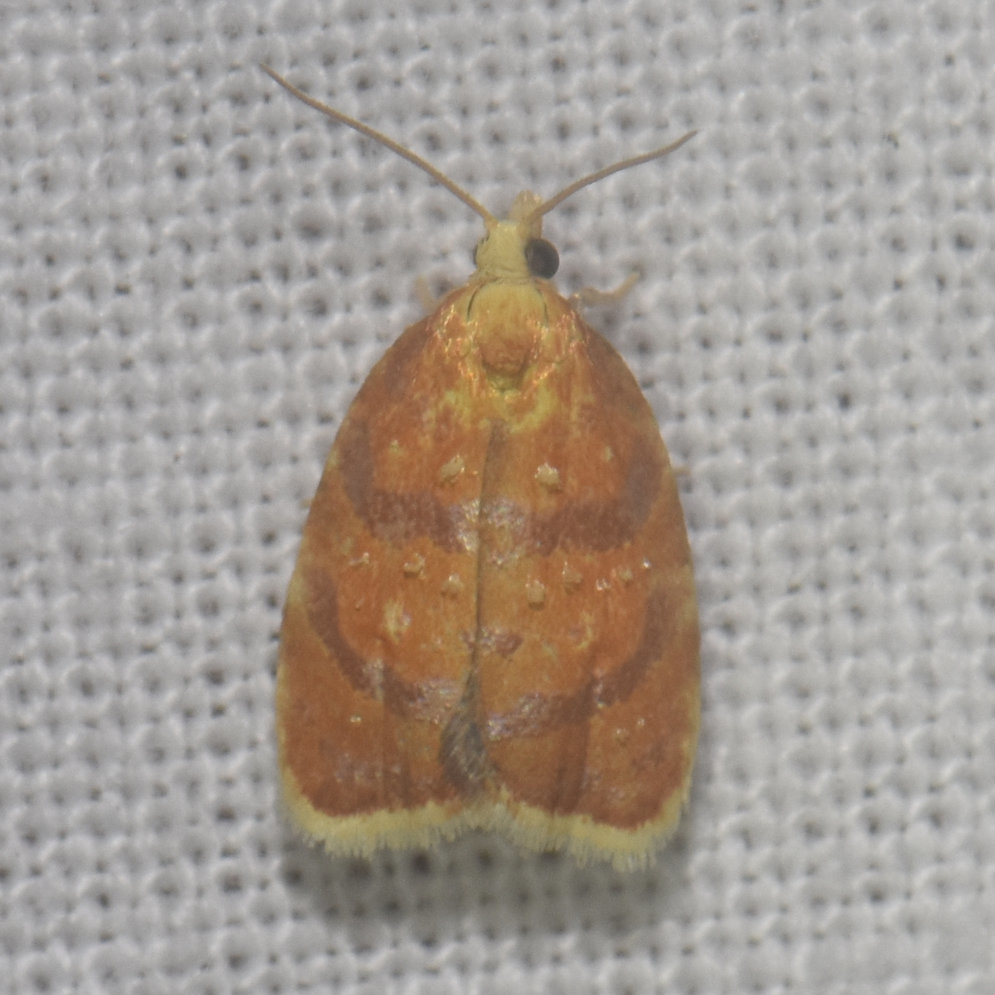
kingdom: Animalia
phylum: Arthropoda
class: Insecta
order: Lepidoptera
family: Tortricidae
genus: Acleris
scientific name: Acleris curvalana
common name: Blueberry leaftier moth
